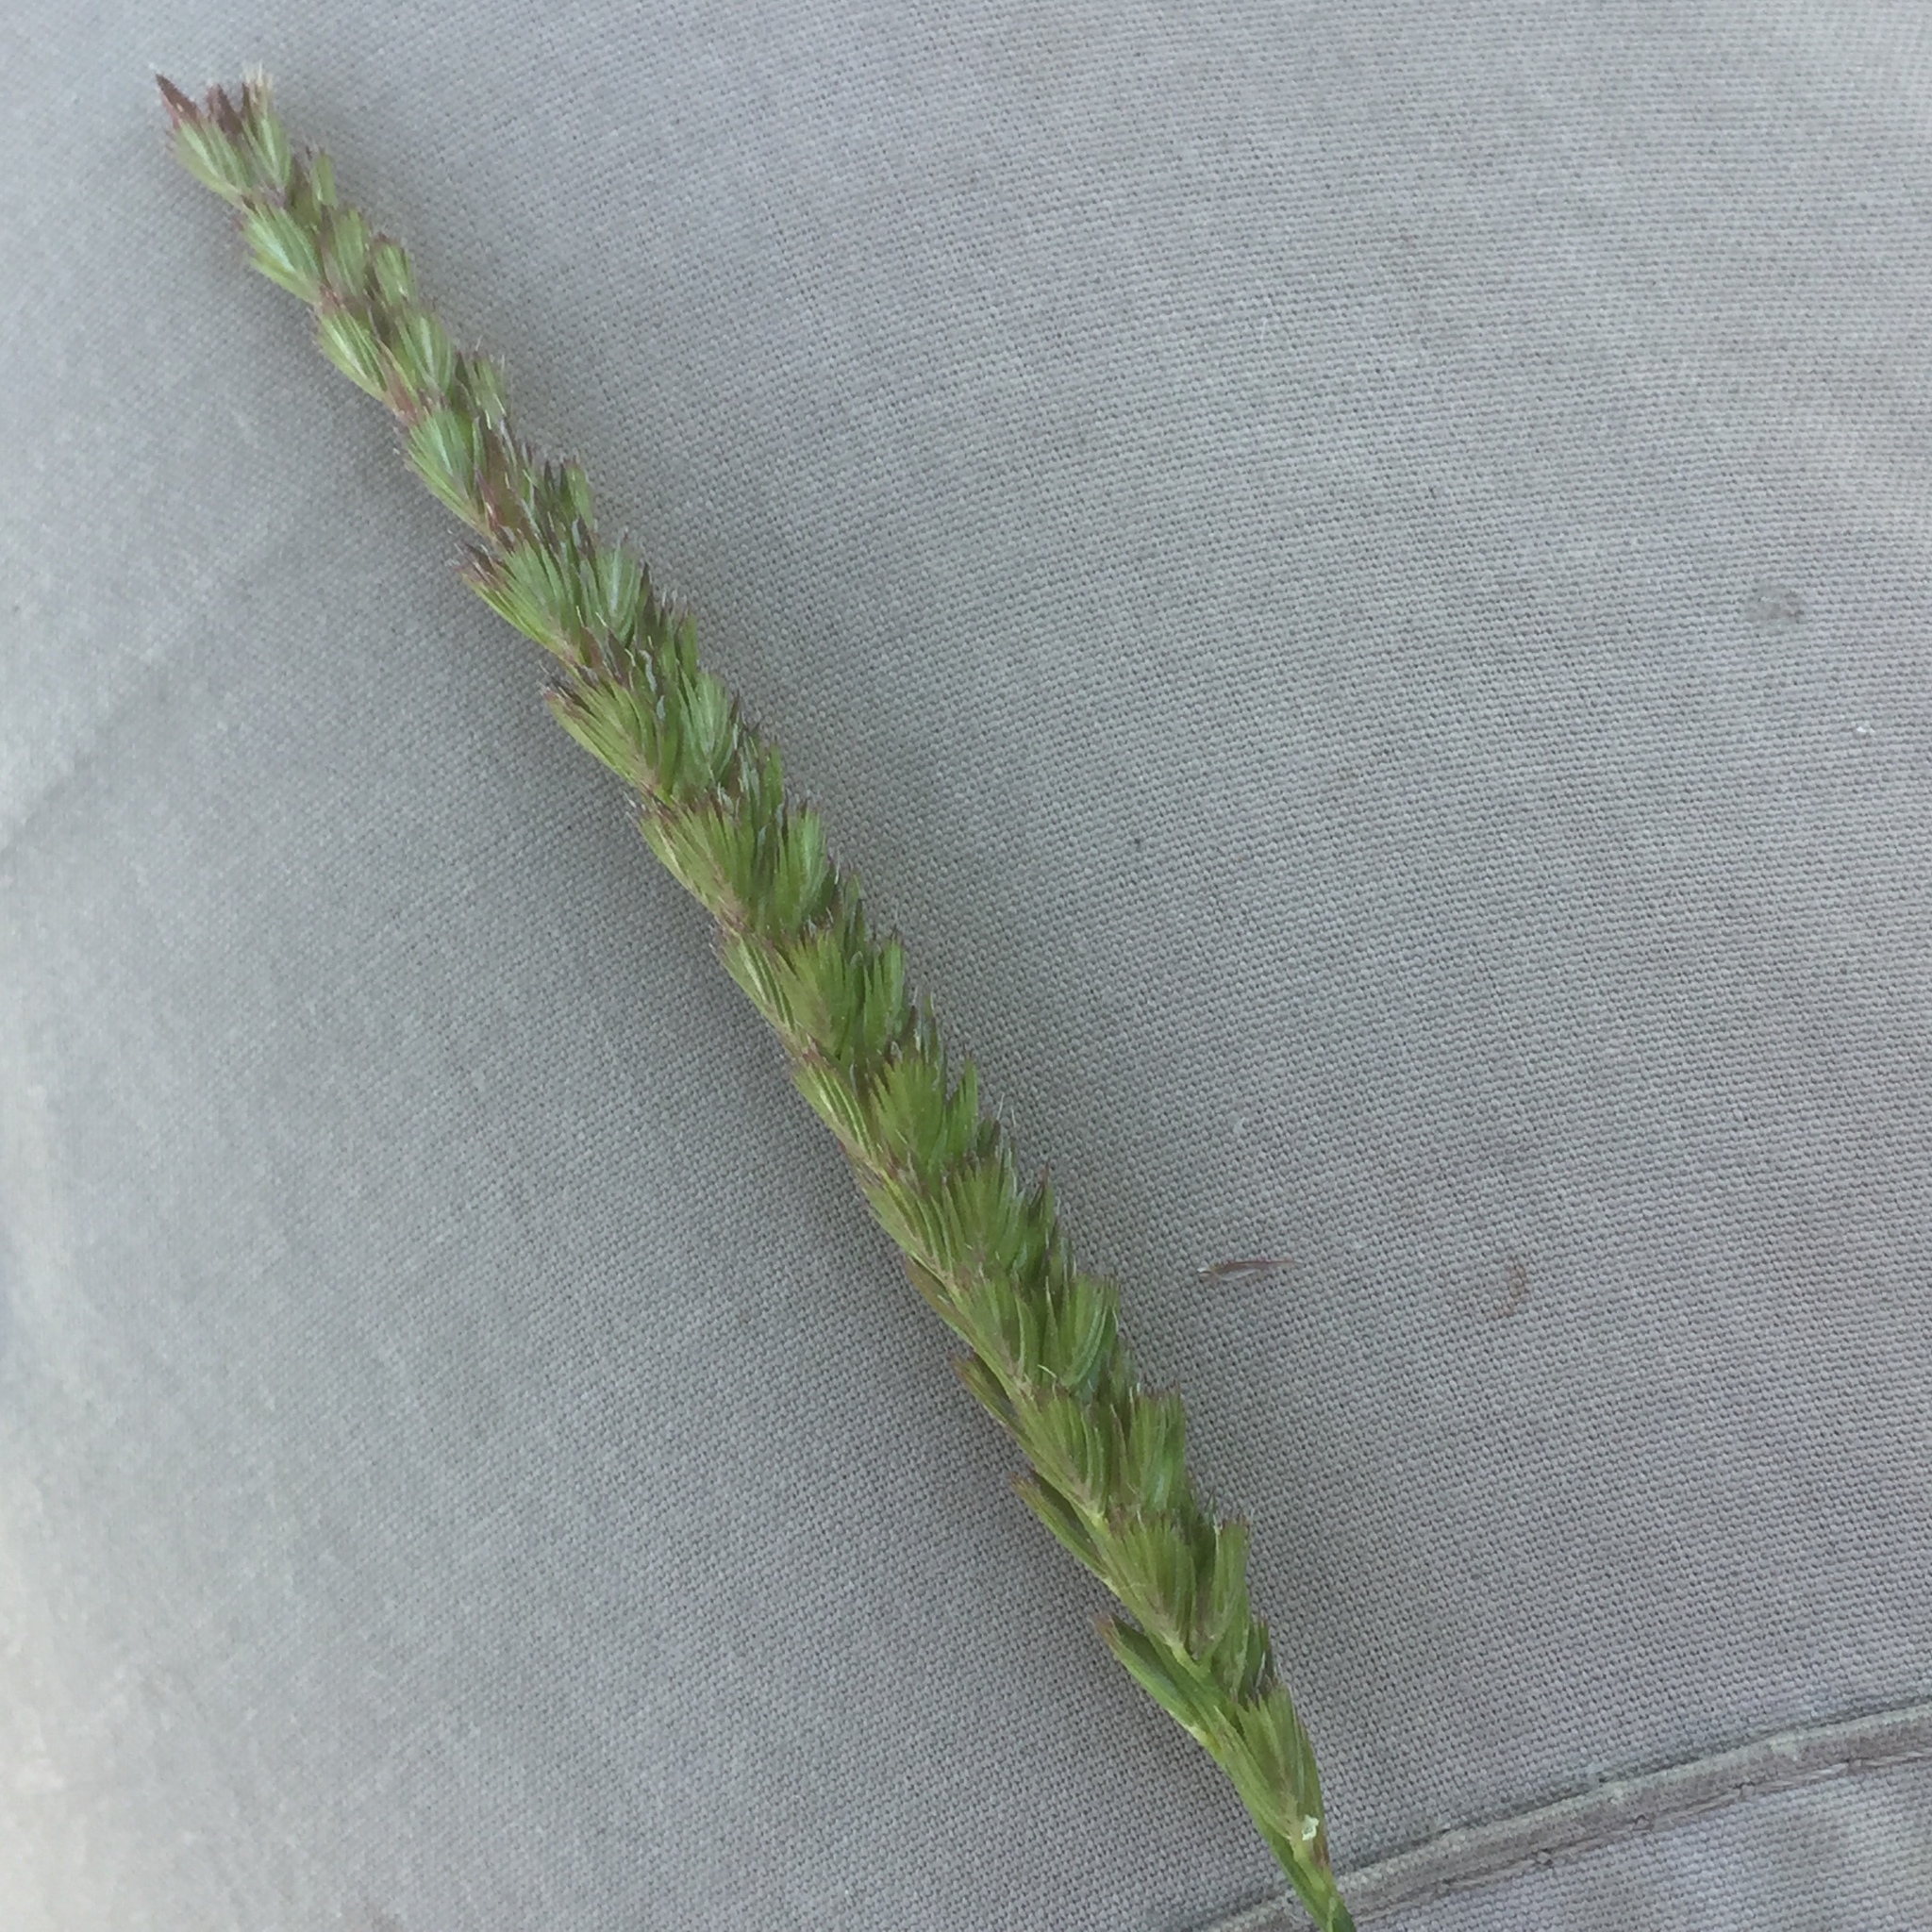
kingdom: Plantae
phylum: Tracheophyta
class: Liliopsida
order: Poales
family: Poaceae
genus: Cynosurus
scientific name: Cynosurus cristatus
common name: Crested dog's-tail
